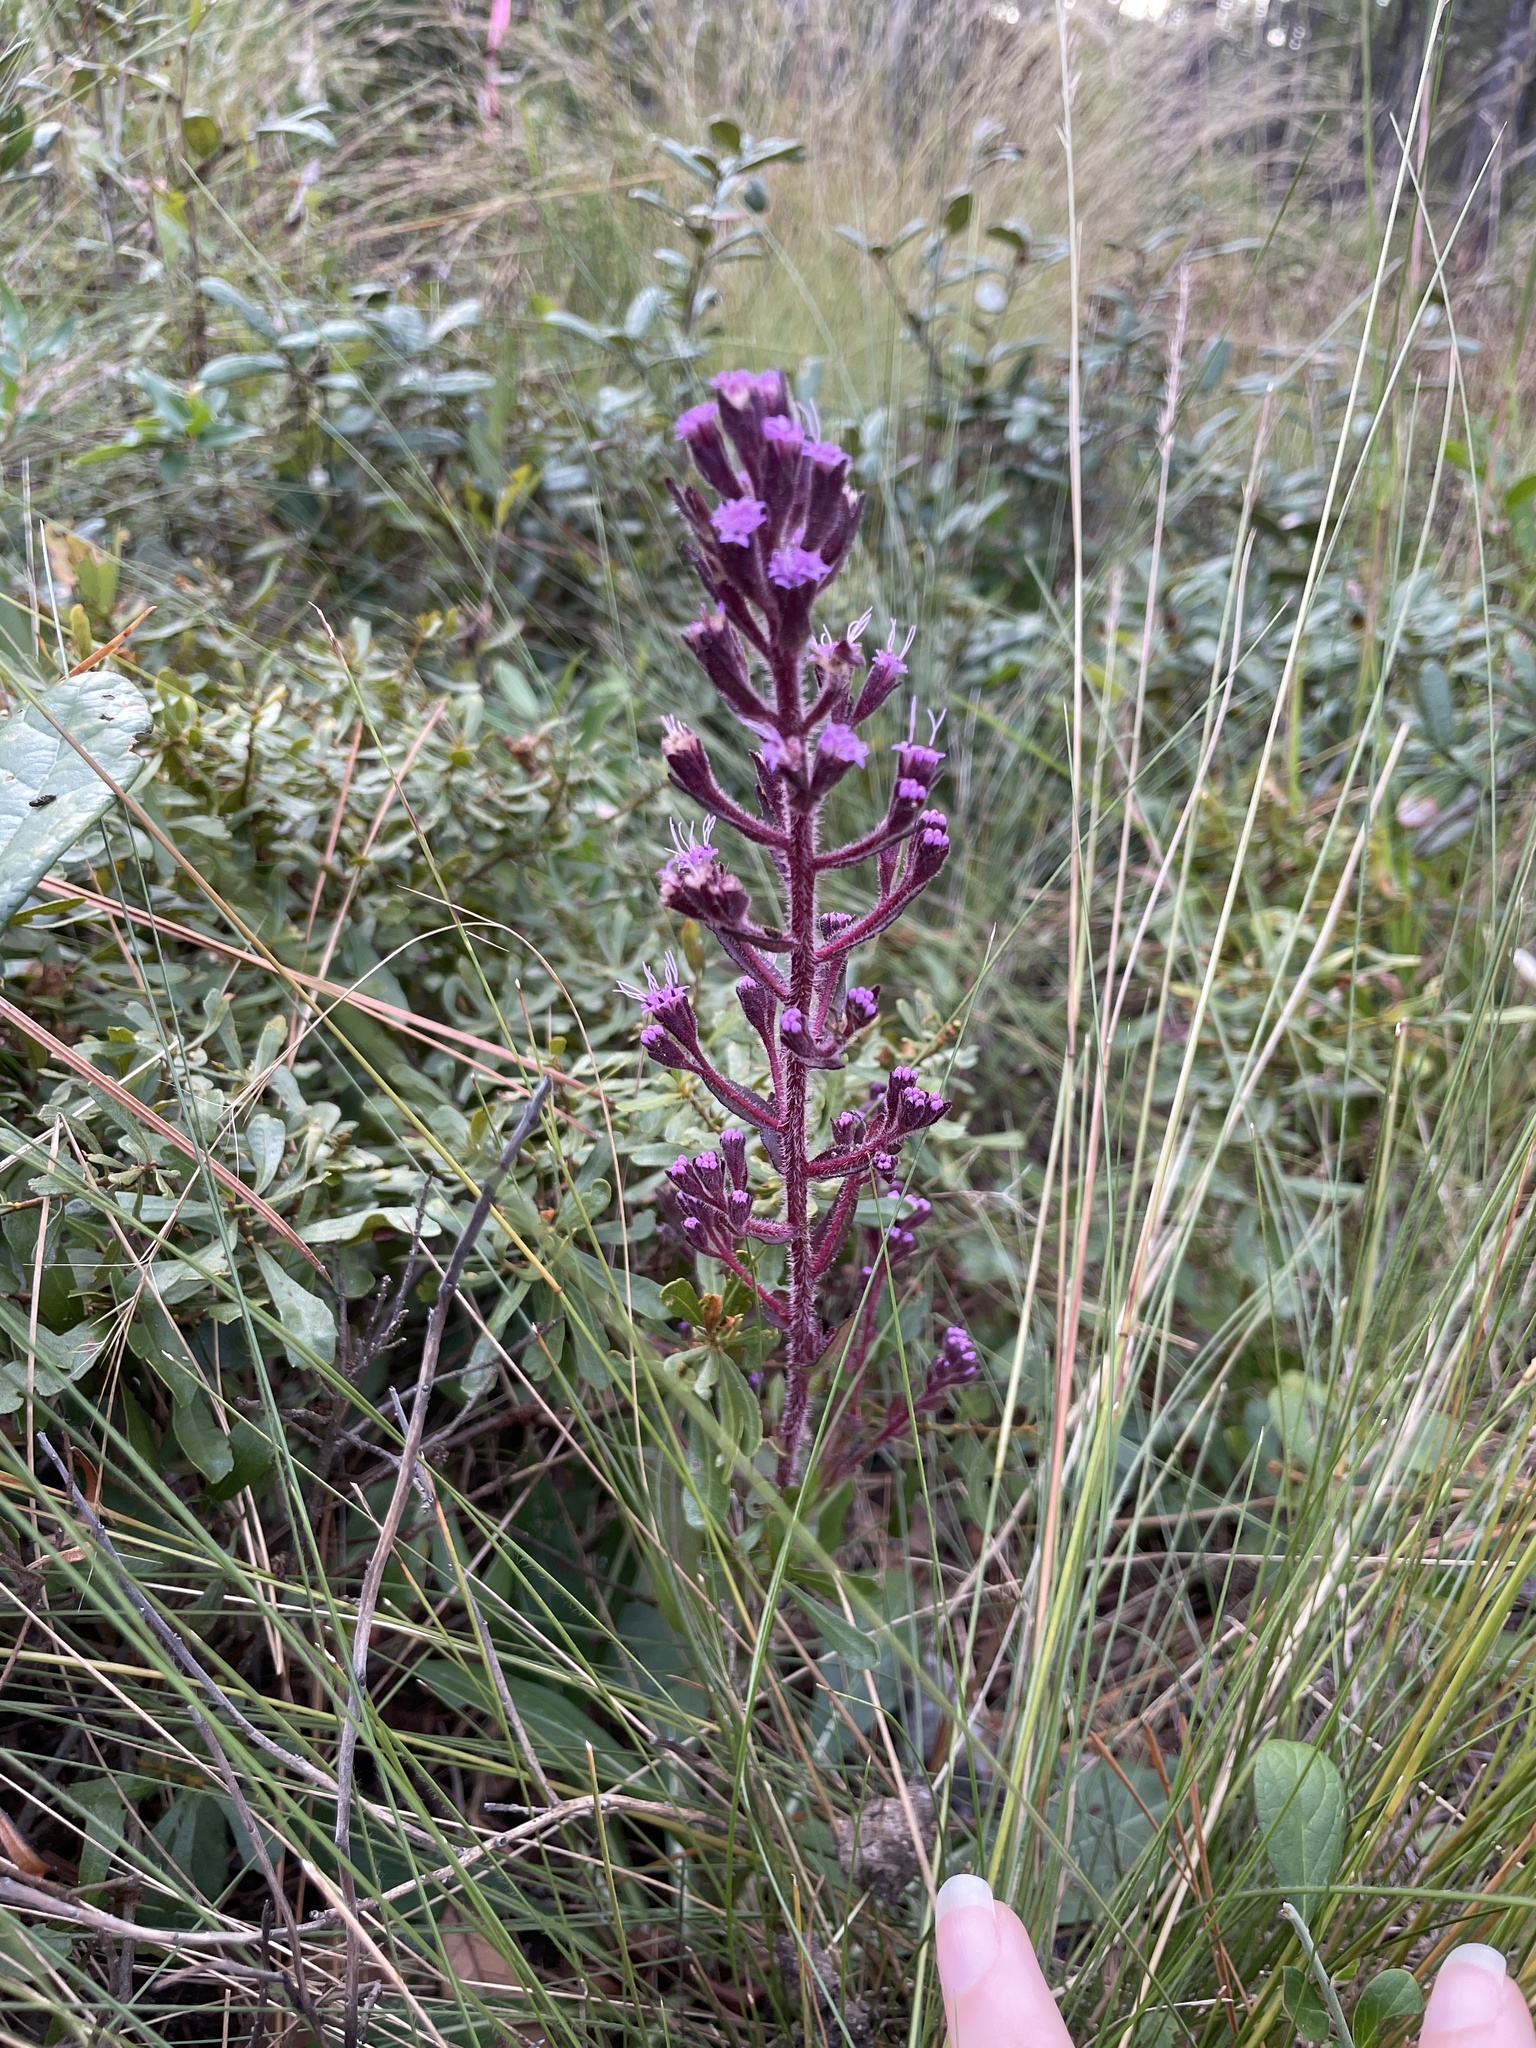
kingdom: Plantae
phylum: Tracheophyta
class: Magnoliopsida
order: Asterales
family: Asteraceae
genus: Carphephorus
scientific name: Carphephorus paniculatus
